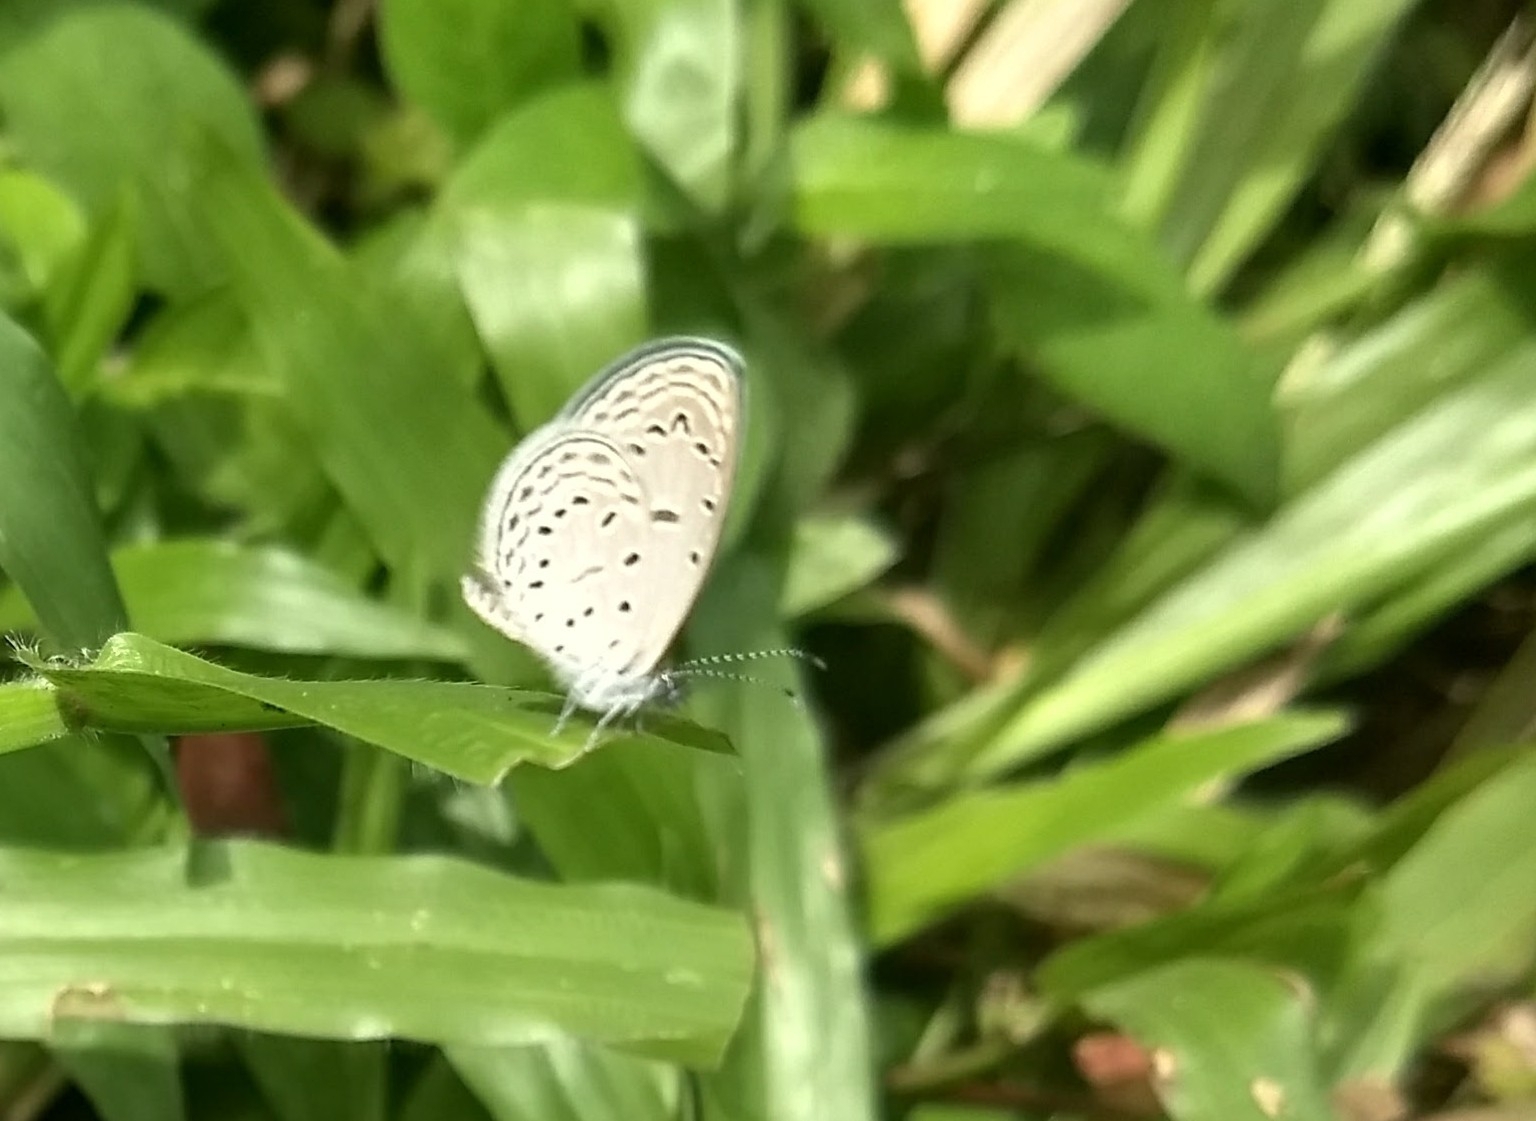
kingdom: Animalia
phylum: Arthropoda
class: Insecta
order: Lepidoptera
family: Lycaenidae
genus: Zizula
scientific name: Zizula hylax
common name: Gaika blue
